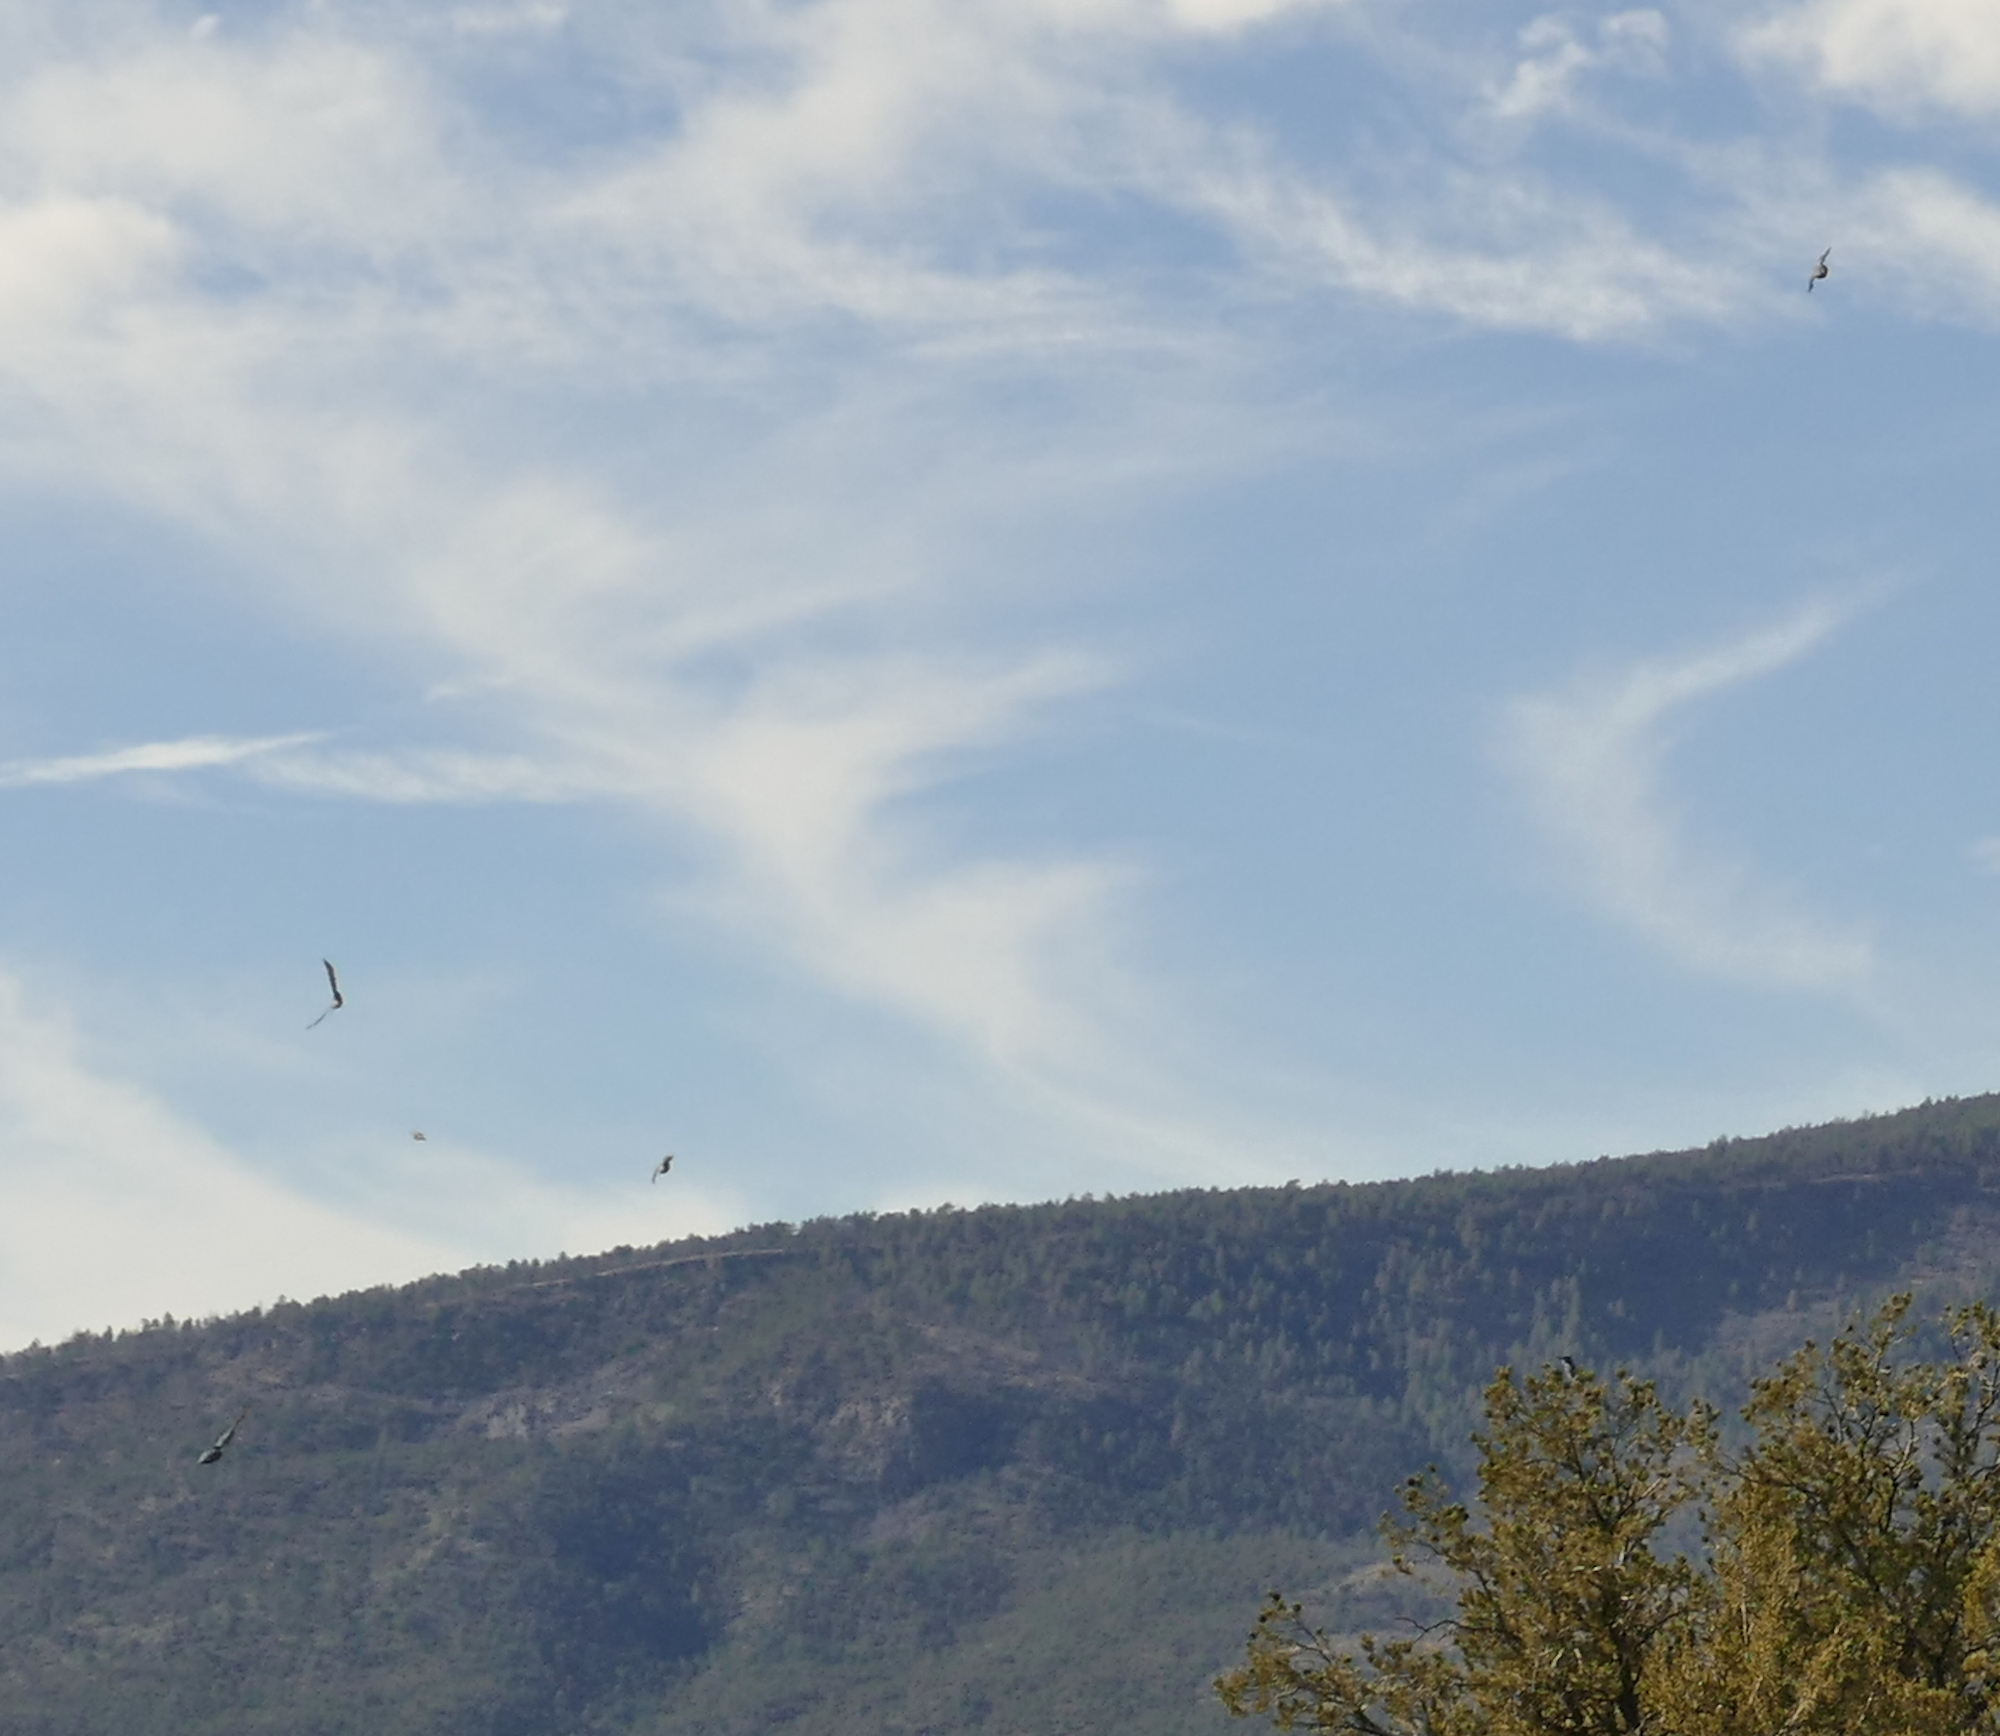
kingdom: Animalia
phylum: Chordata
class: Aves
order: Passeriformes
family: Corvidae
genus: Gymnorhinus
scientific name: Gymnorhinus cyanocephalus
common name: Pinyon jay
